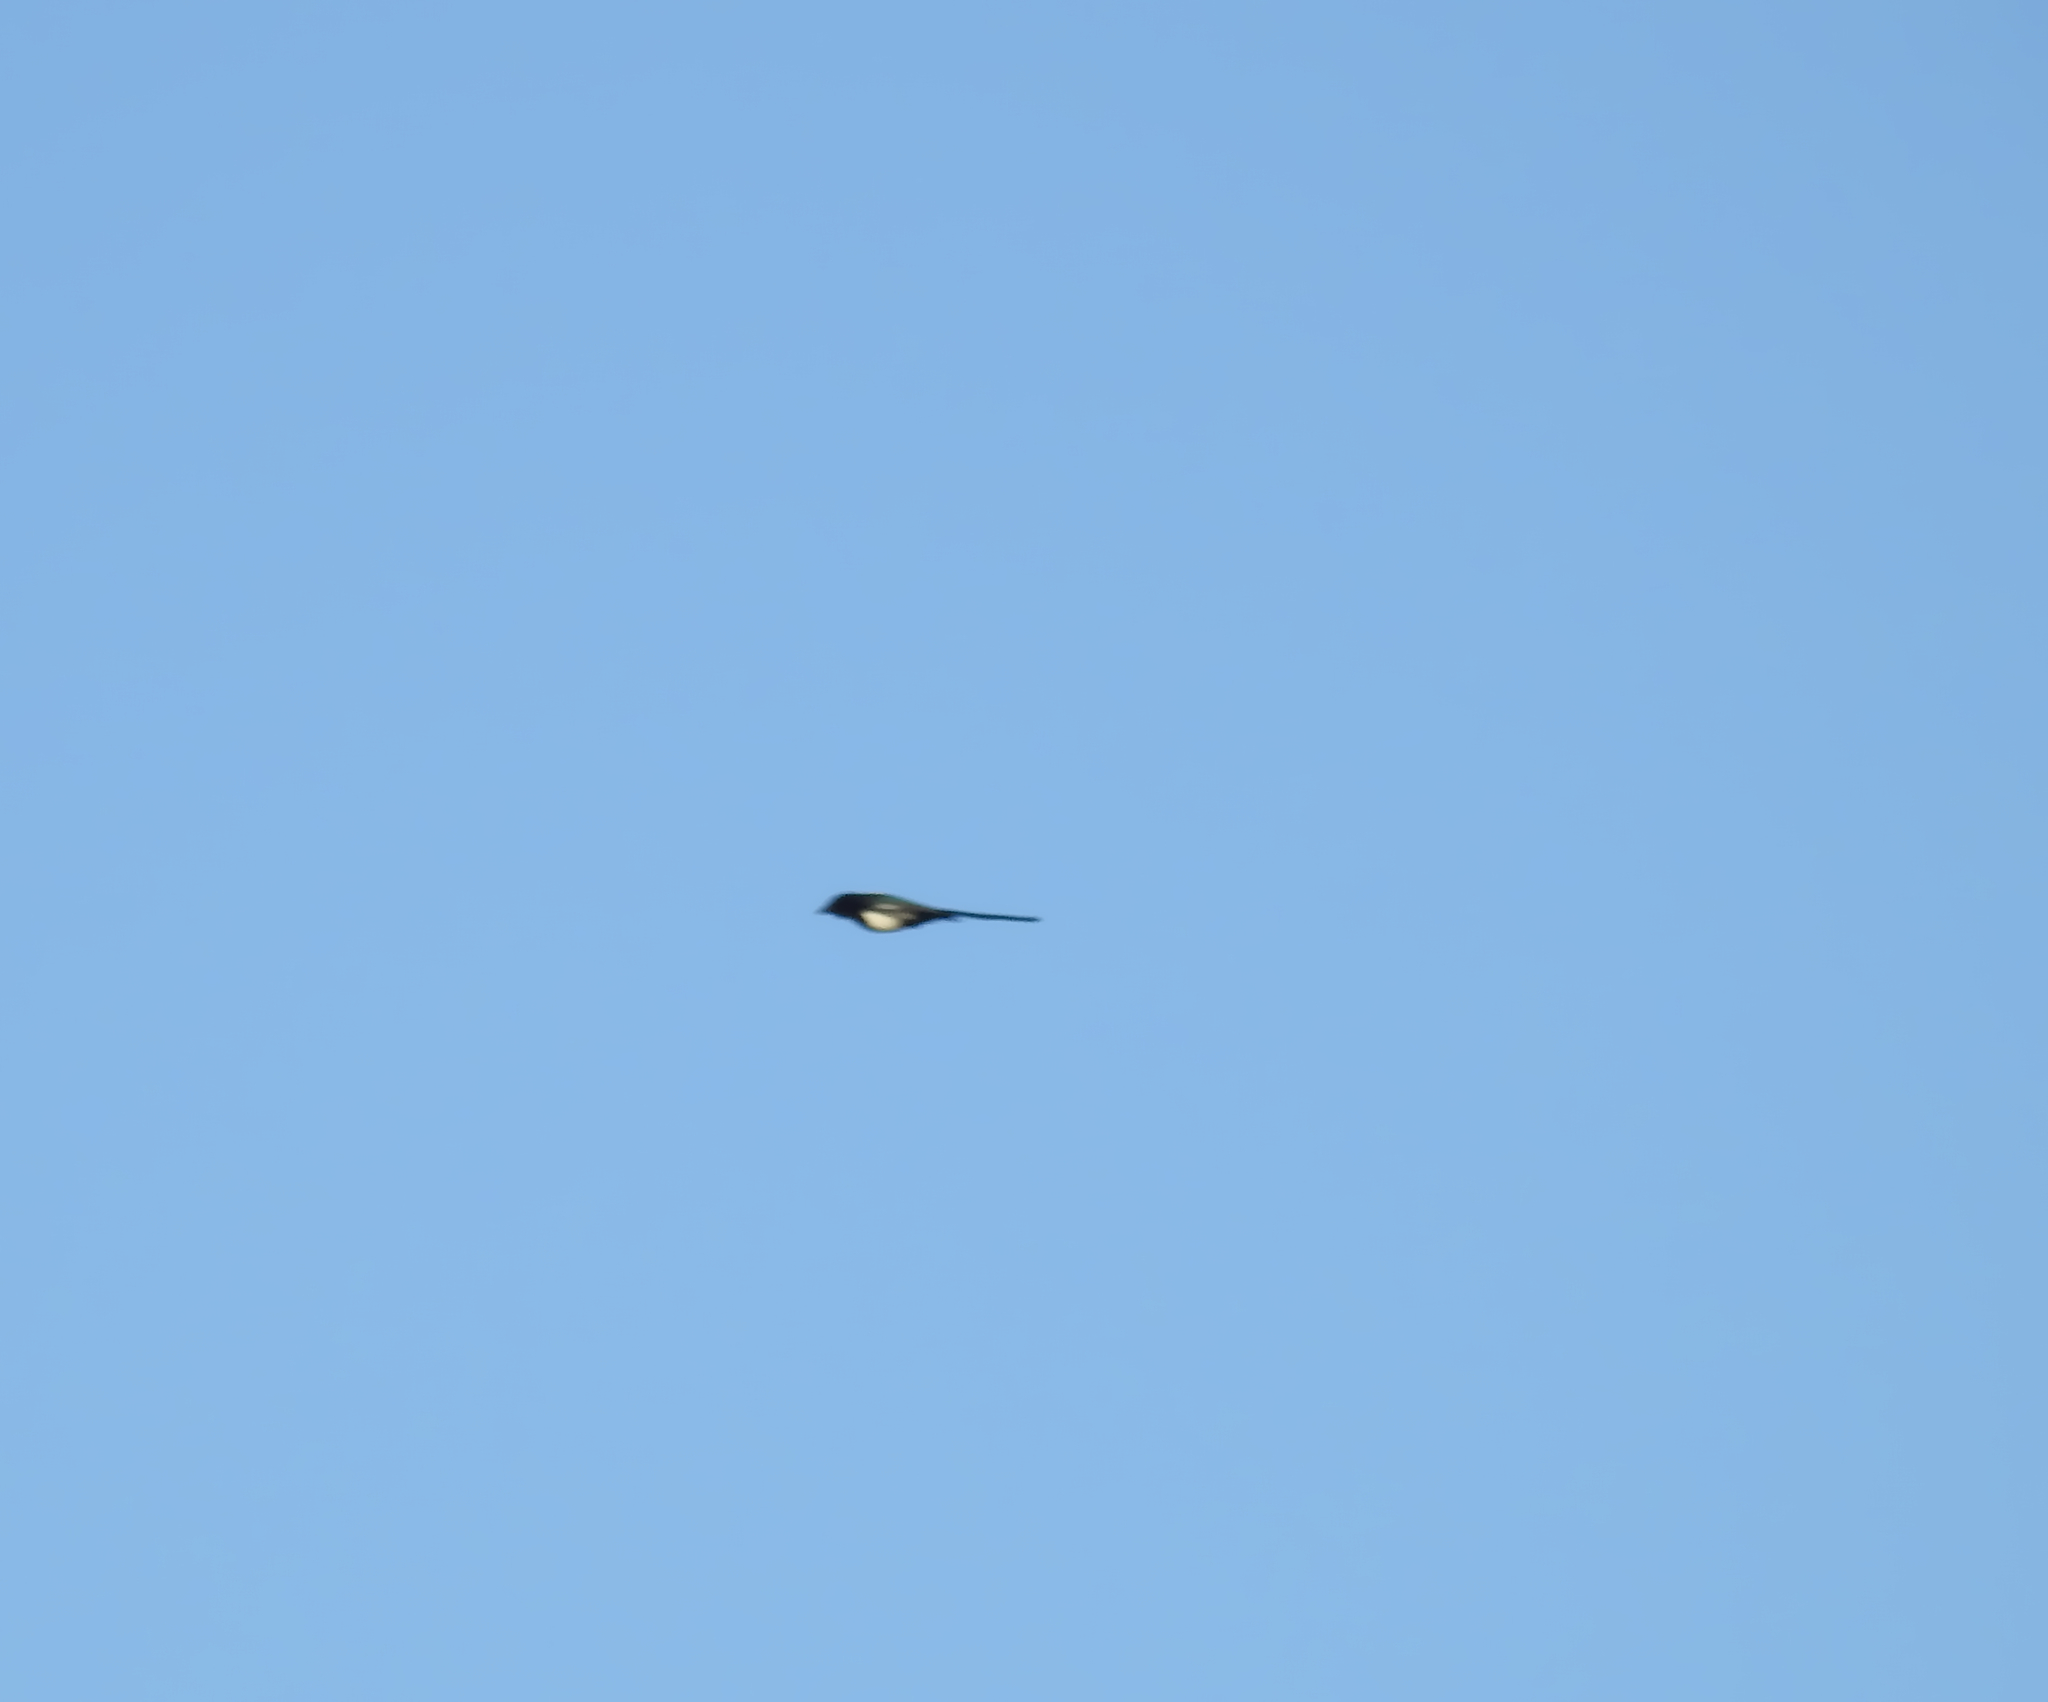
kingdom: Animalia
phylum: Chordata
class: Aves
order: Passeriformes
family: Corvidae
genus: Pica
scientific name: Pica pica
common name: Eurasian magpie
